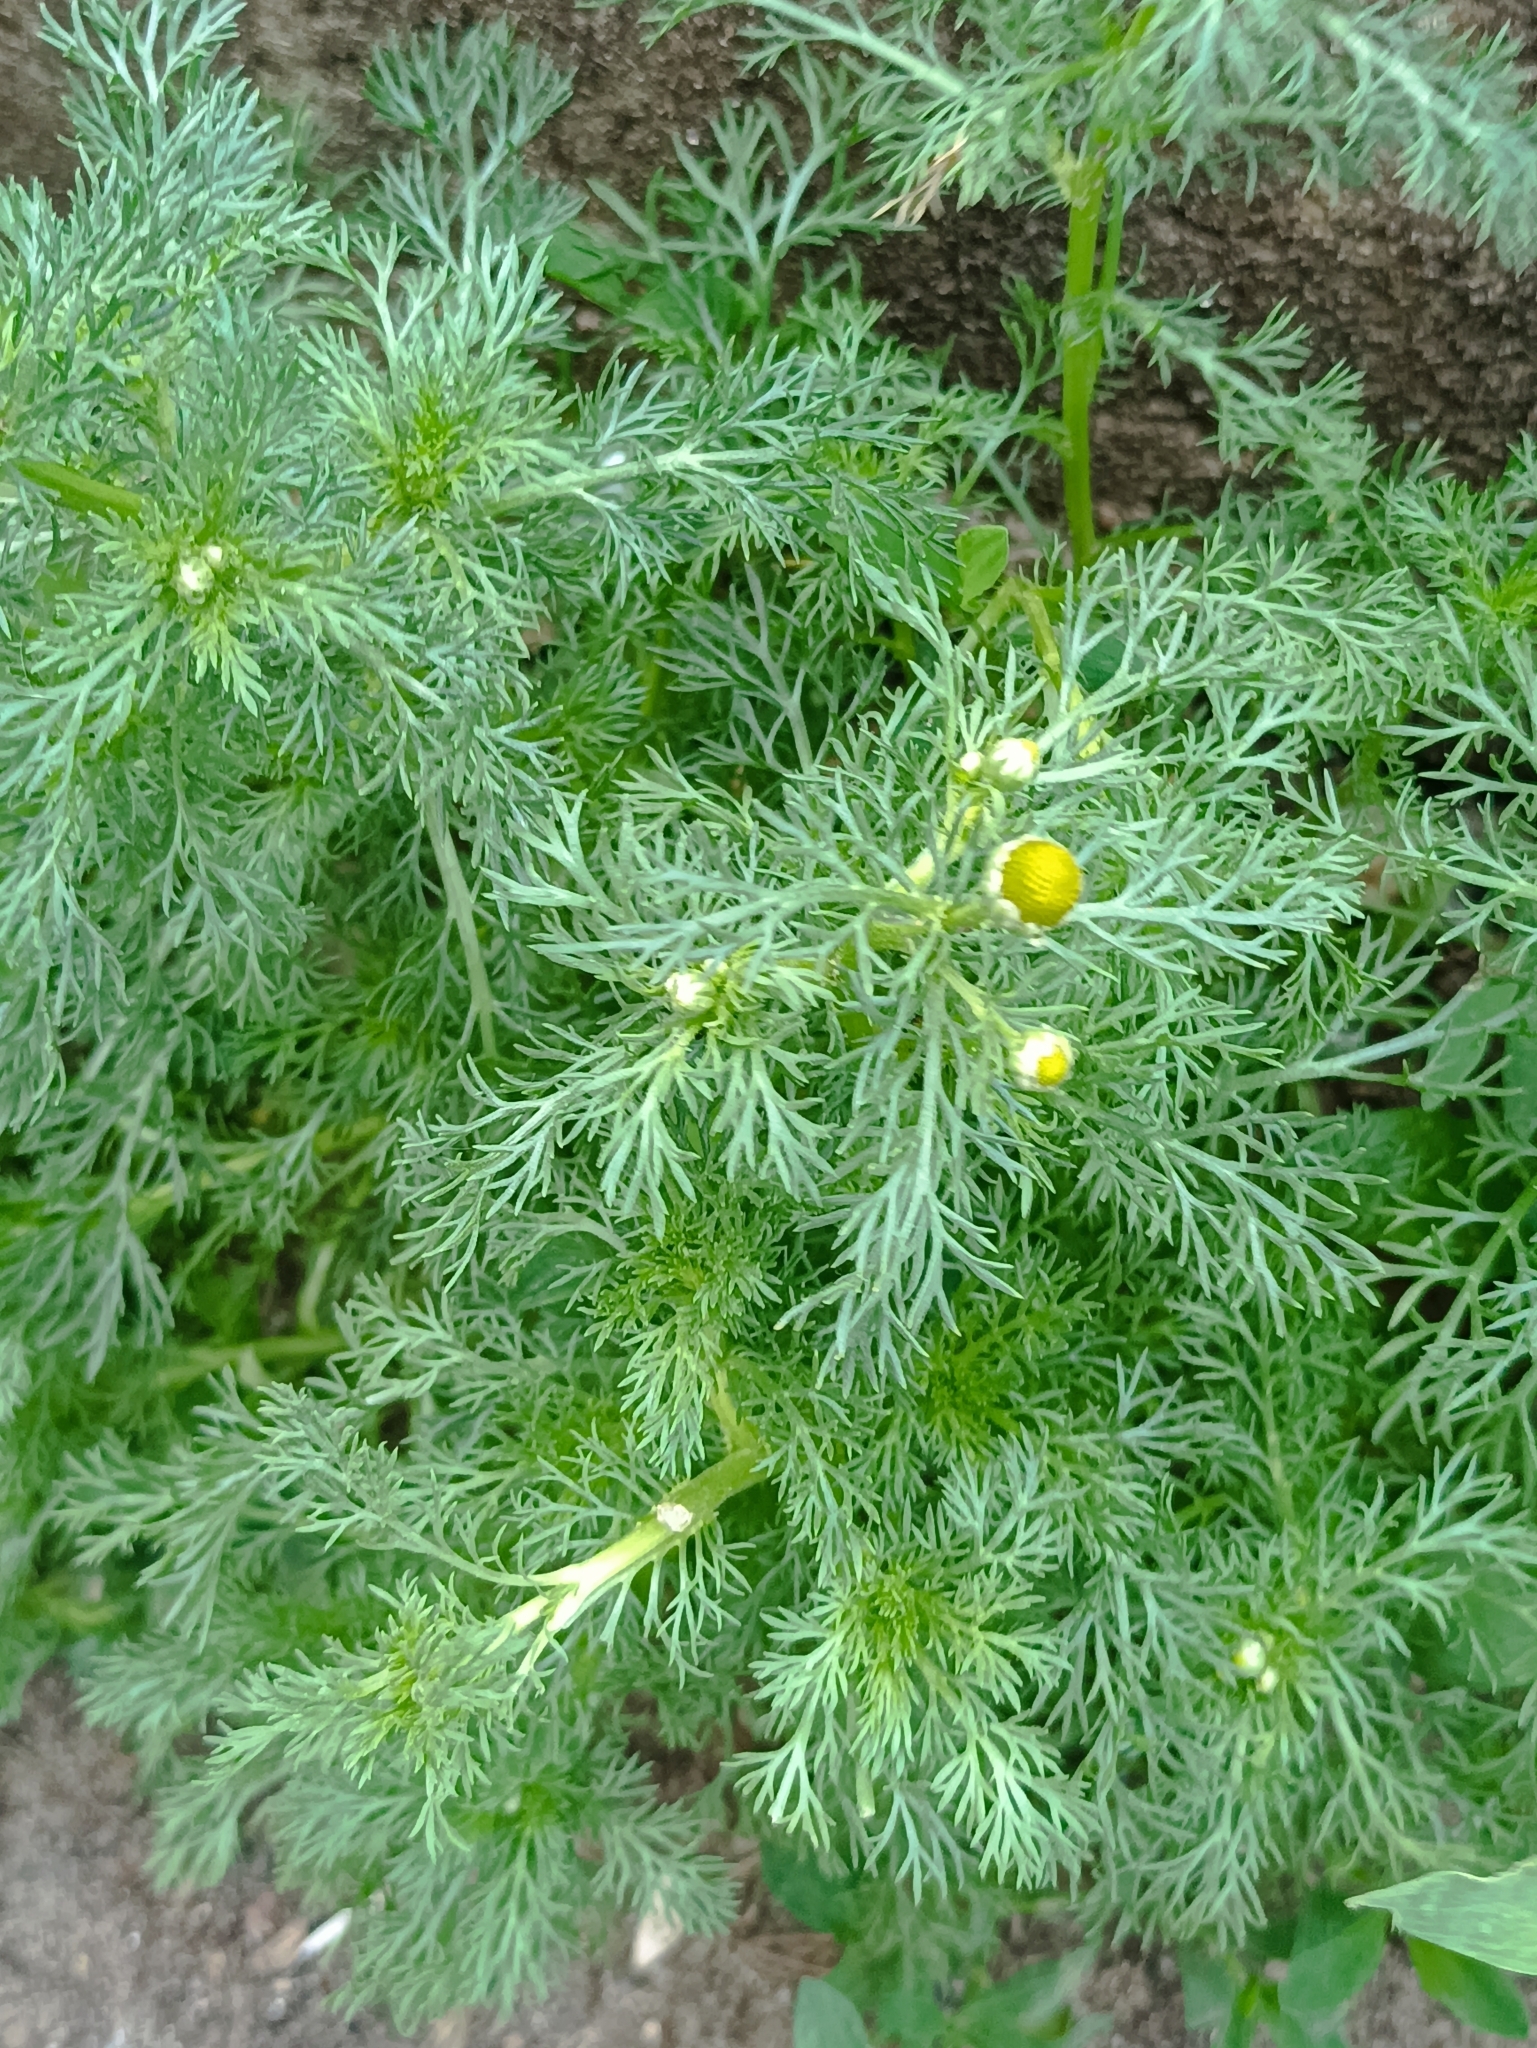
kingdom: Plantae
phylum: Tracheophyta
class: Magnoliopsida
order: Asterales
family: Asteraceae
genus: Matricaria
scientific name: Matricaria discoidea
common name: Disc mayweed
